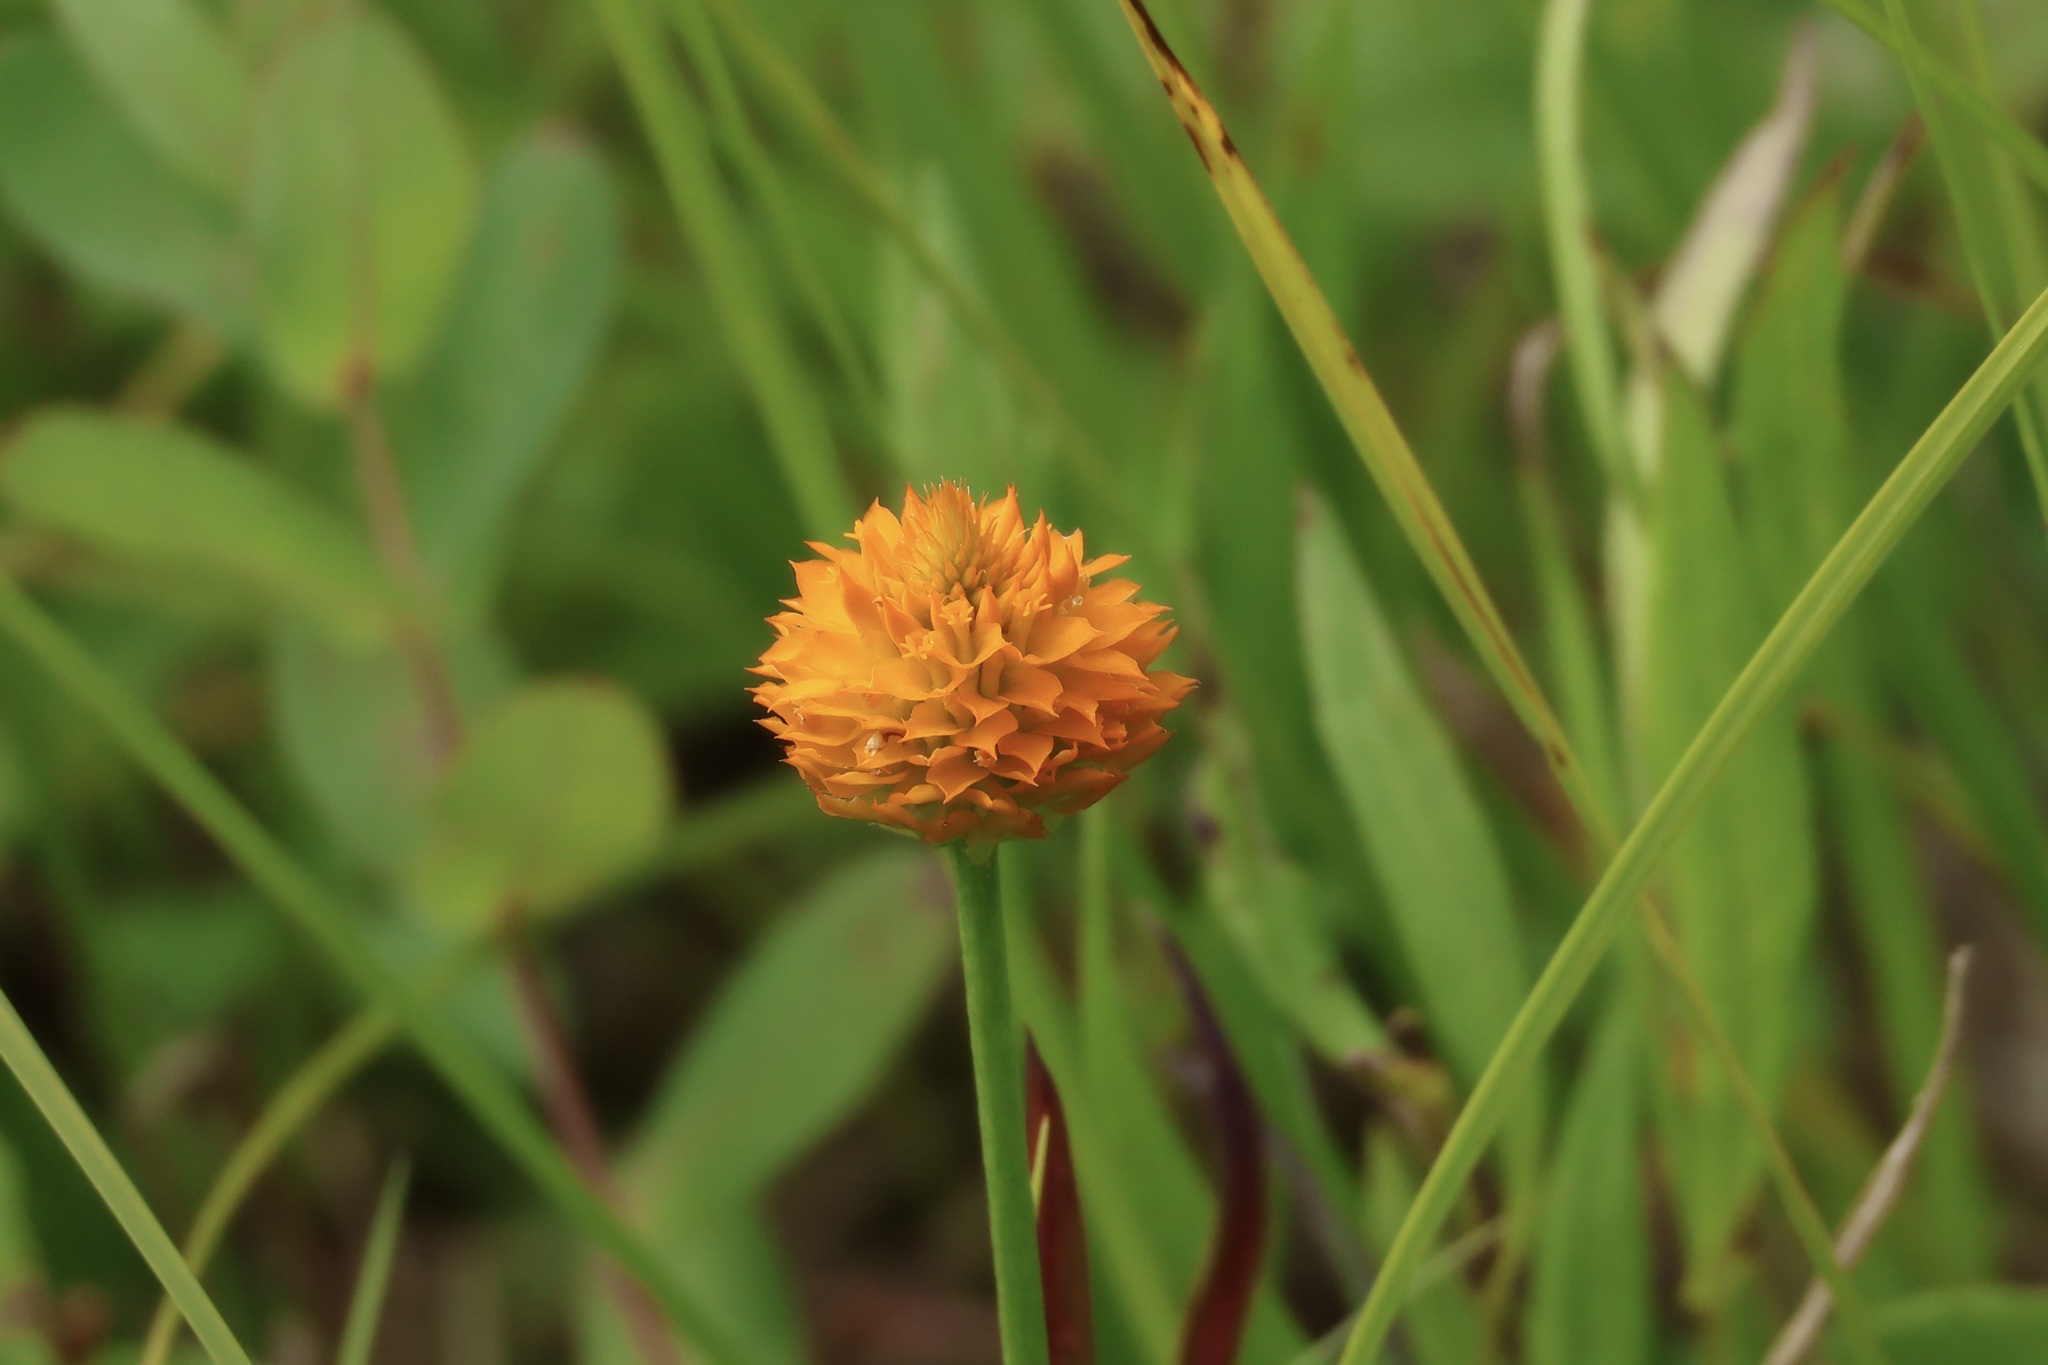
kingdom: Plantae
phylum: Tracheophyta
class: Magnoliopsida
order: Fabales
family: Polygalaceae
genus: Polygala
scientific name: Polygala lutea
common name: Orange milkwort
